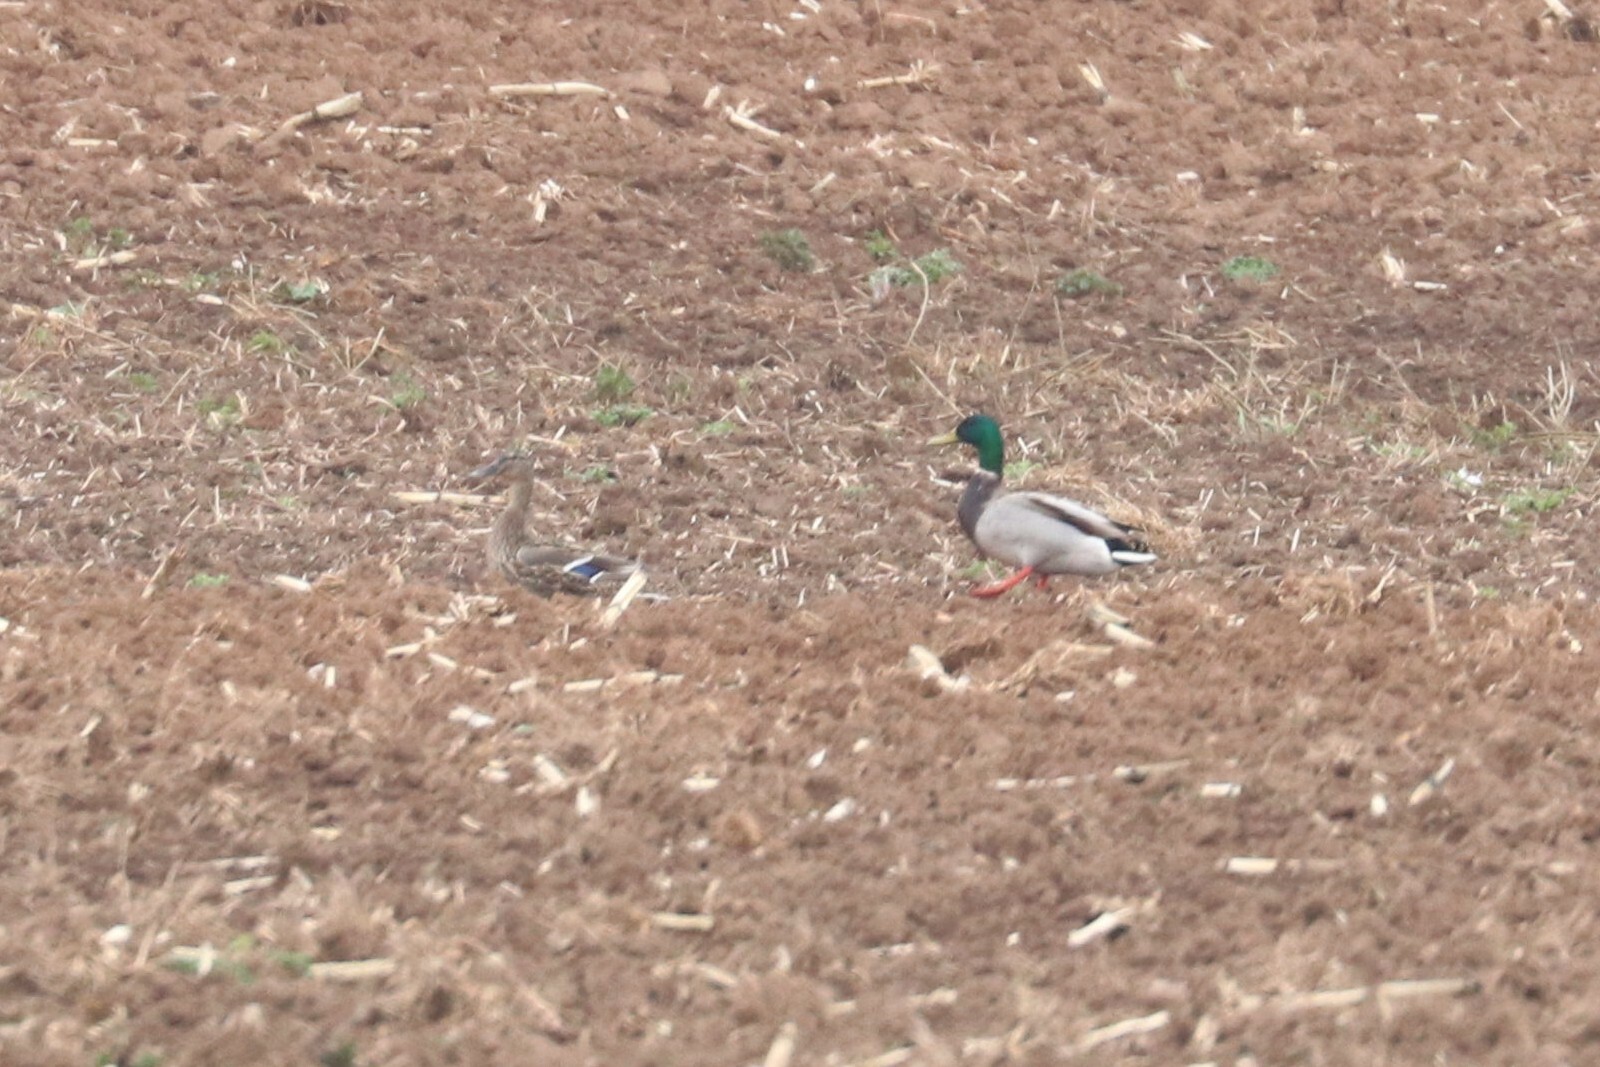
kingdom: Animalia
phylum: Chordata
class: Aves
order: Anseriformes
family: Anatidae
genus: Anas
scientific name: Anas platyrhynchos
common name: Mallard
